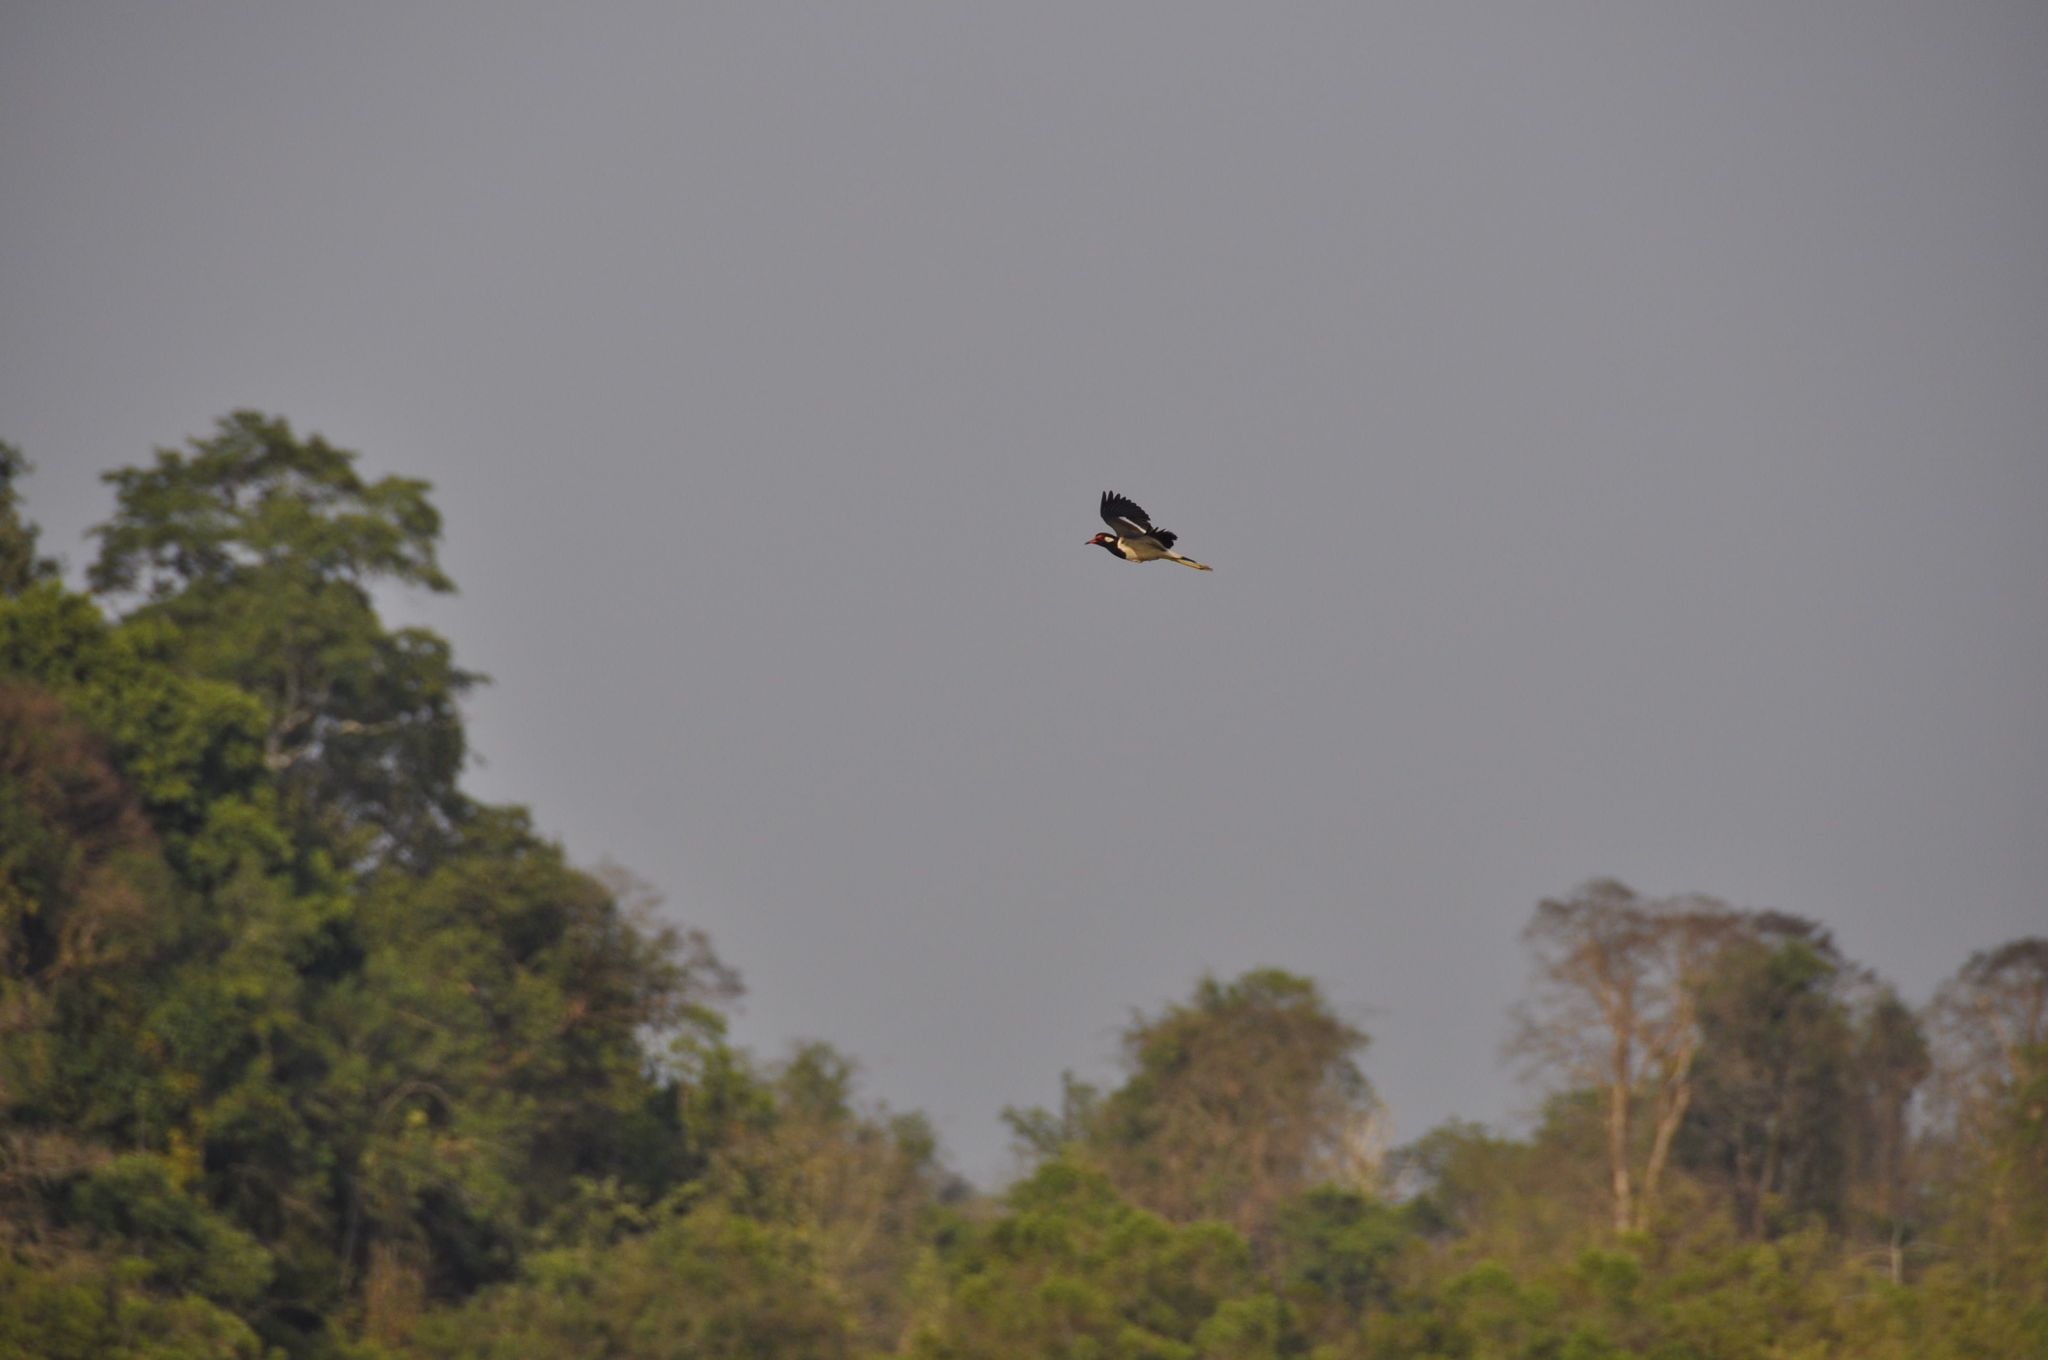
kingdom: Animalia
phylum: Chordata
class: Aves
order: Charadriiformes
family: Charadriidae
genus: Vanellus
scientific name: Vanellus indicus
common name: Red-wattled lapwing
